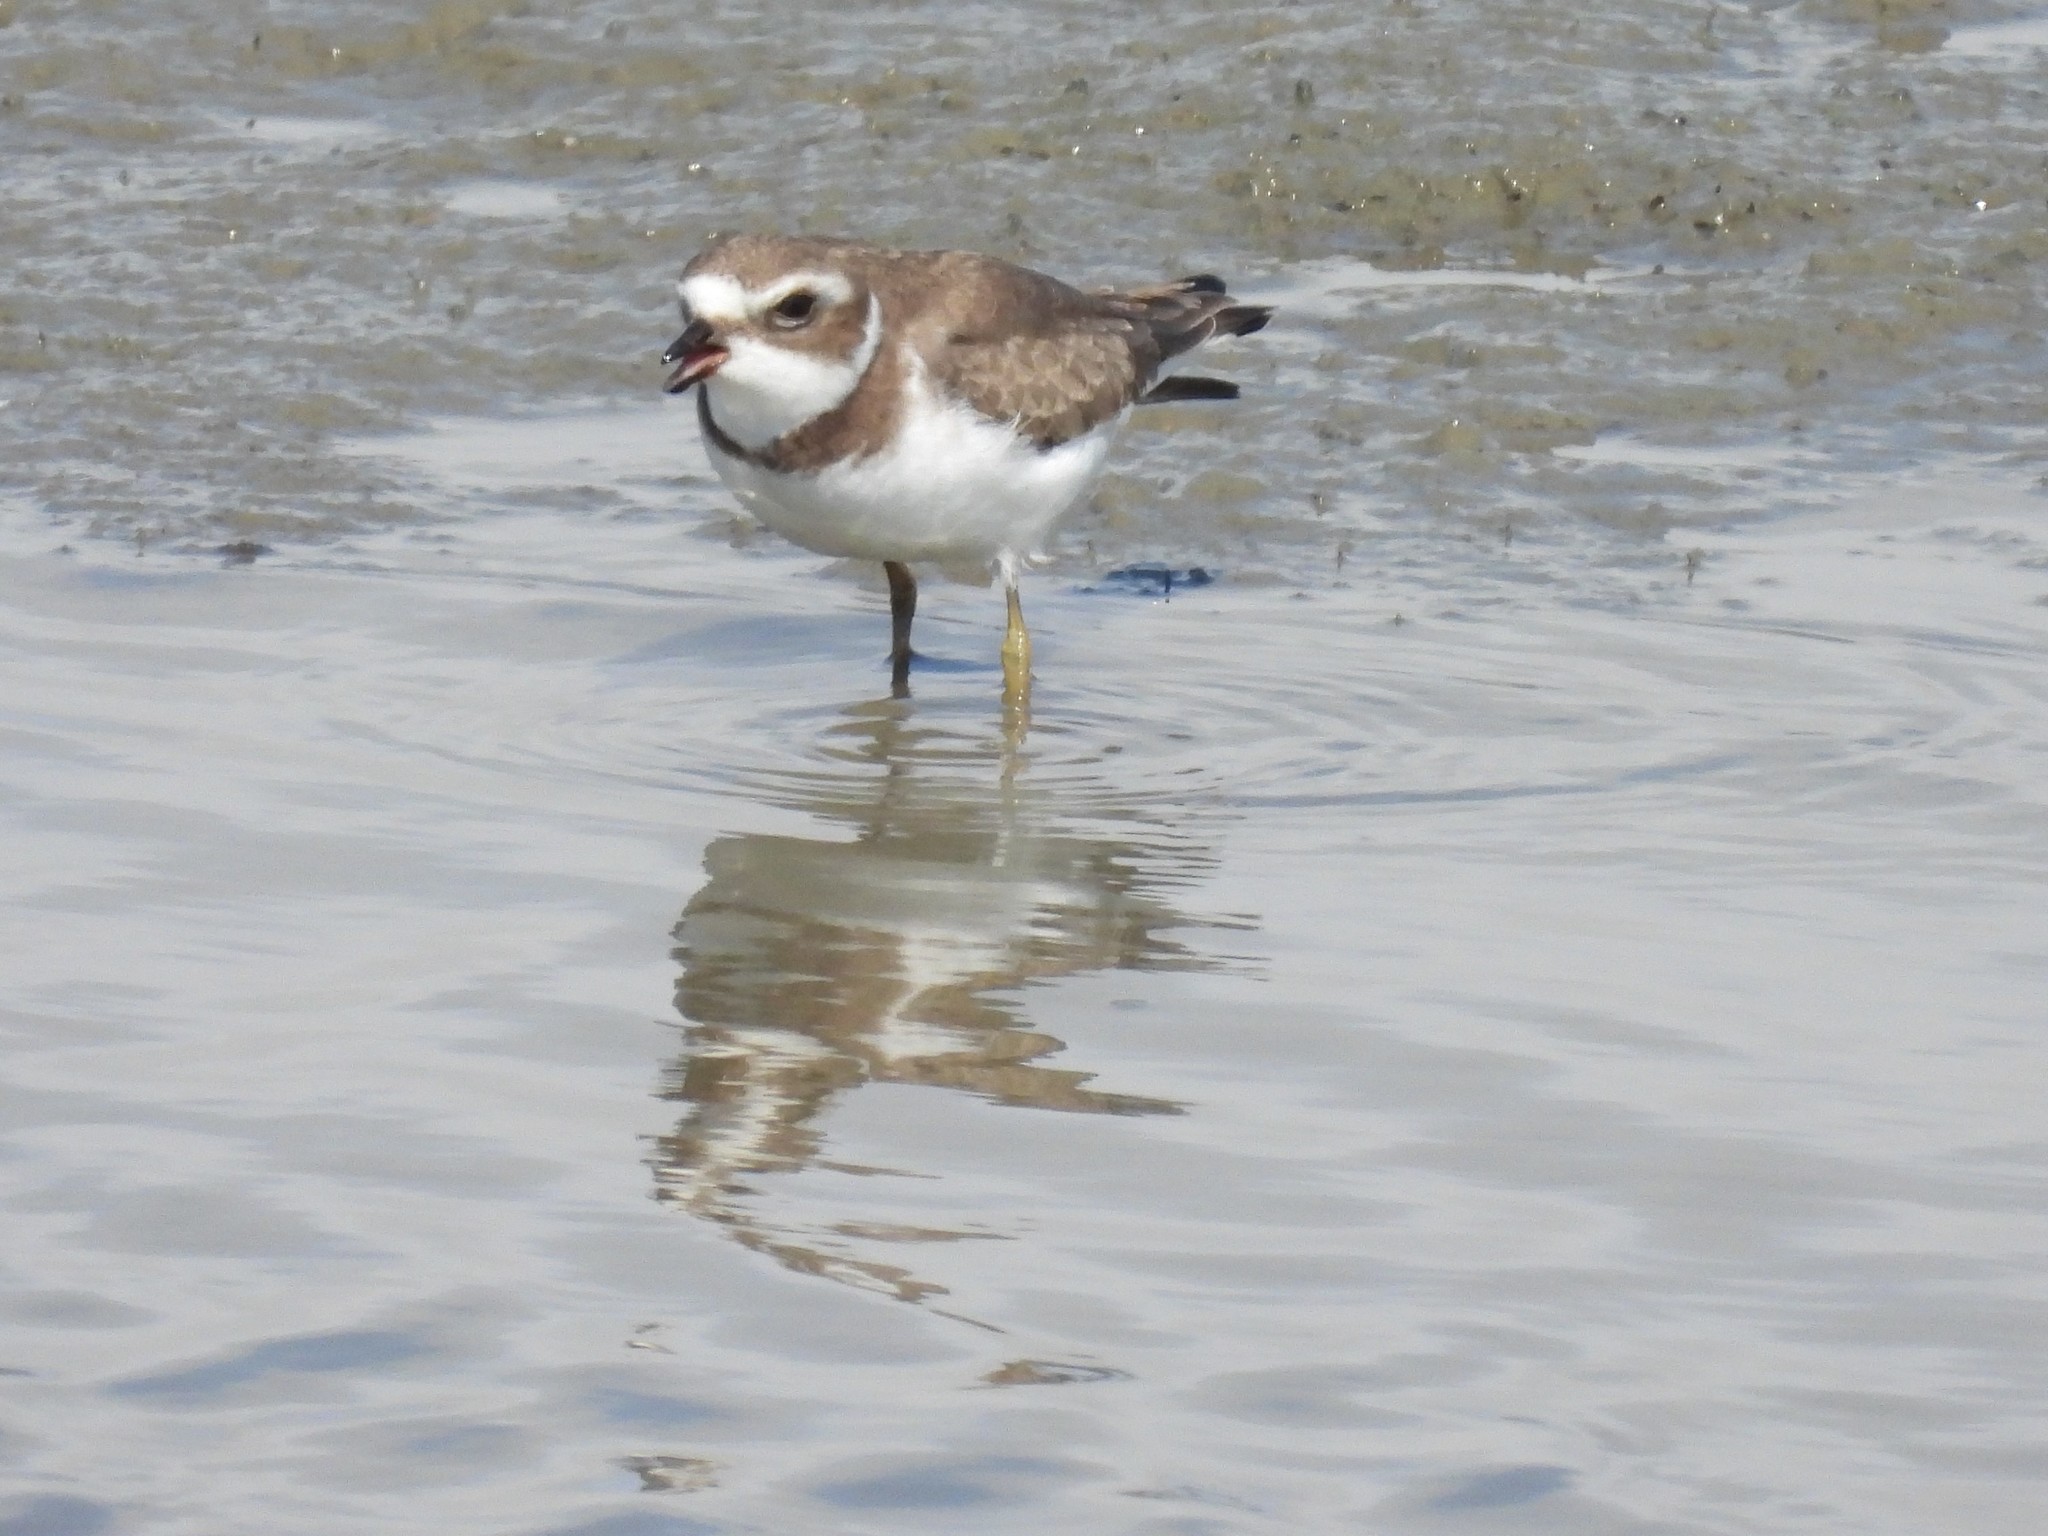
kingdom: Animalia
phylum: Chordata
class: Aves
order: Charadriiformes
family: Charadriidae
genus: Charadrius
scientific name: Charadrius semipalmatus
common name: Semipalmated plover
